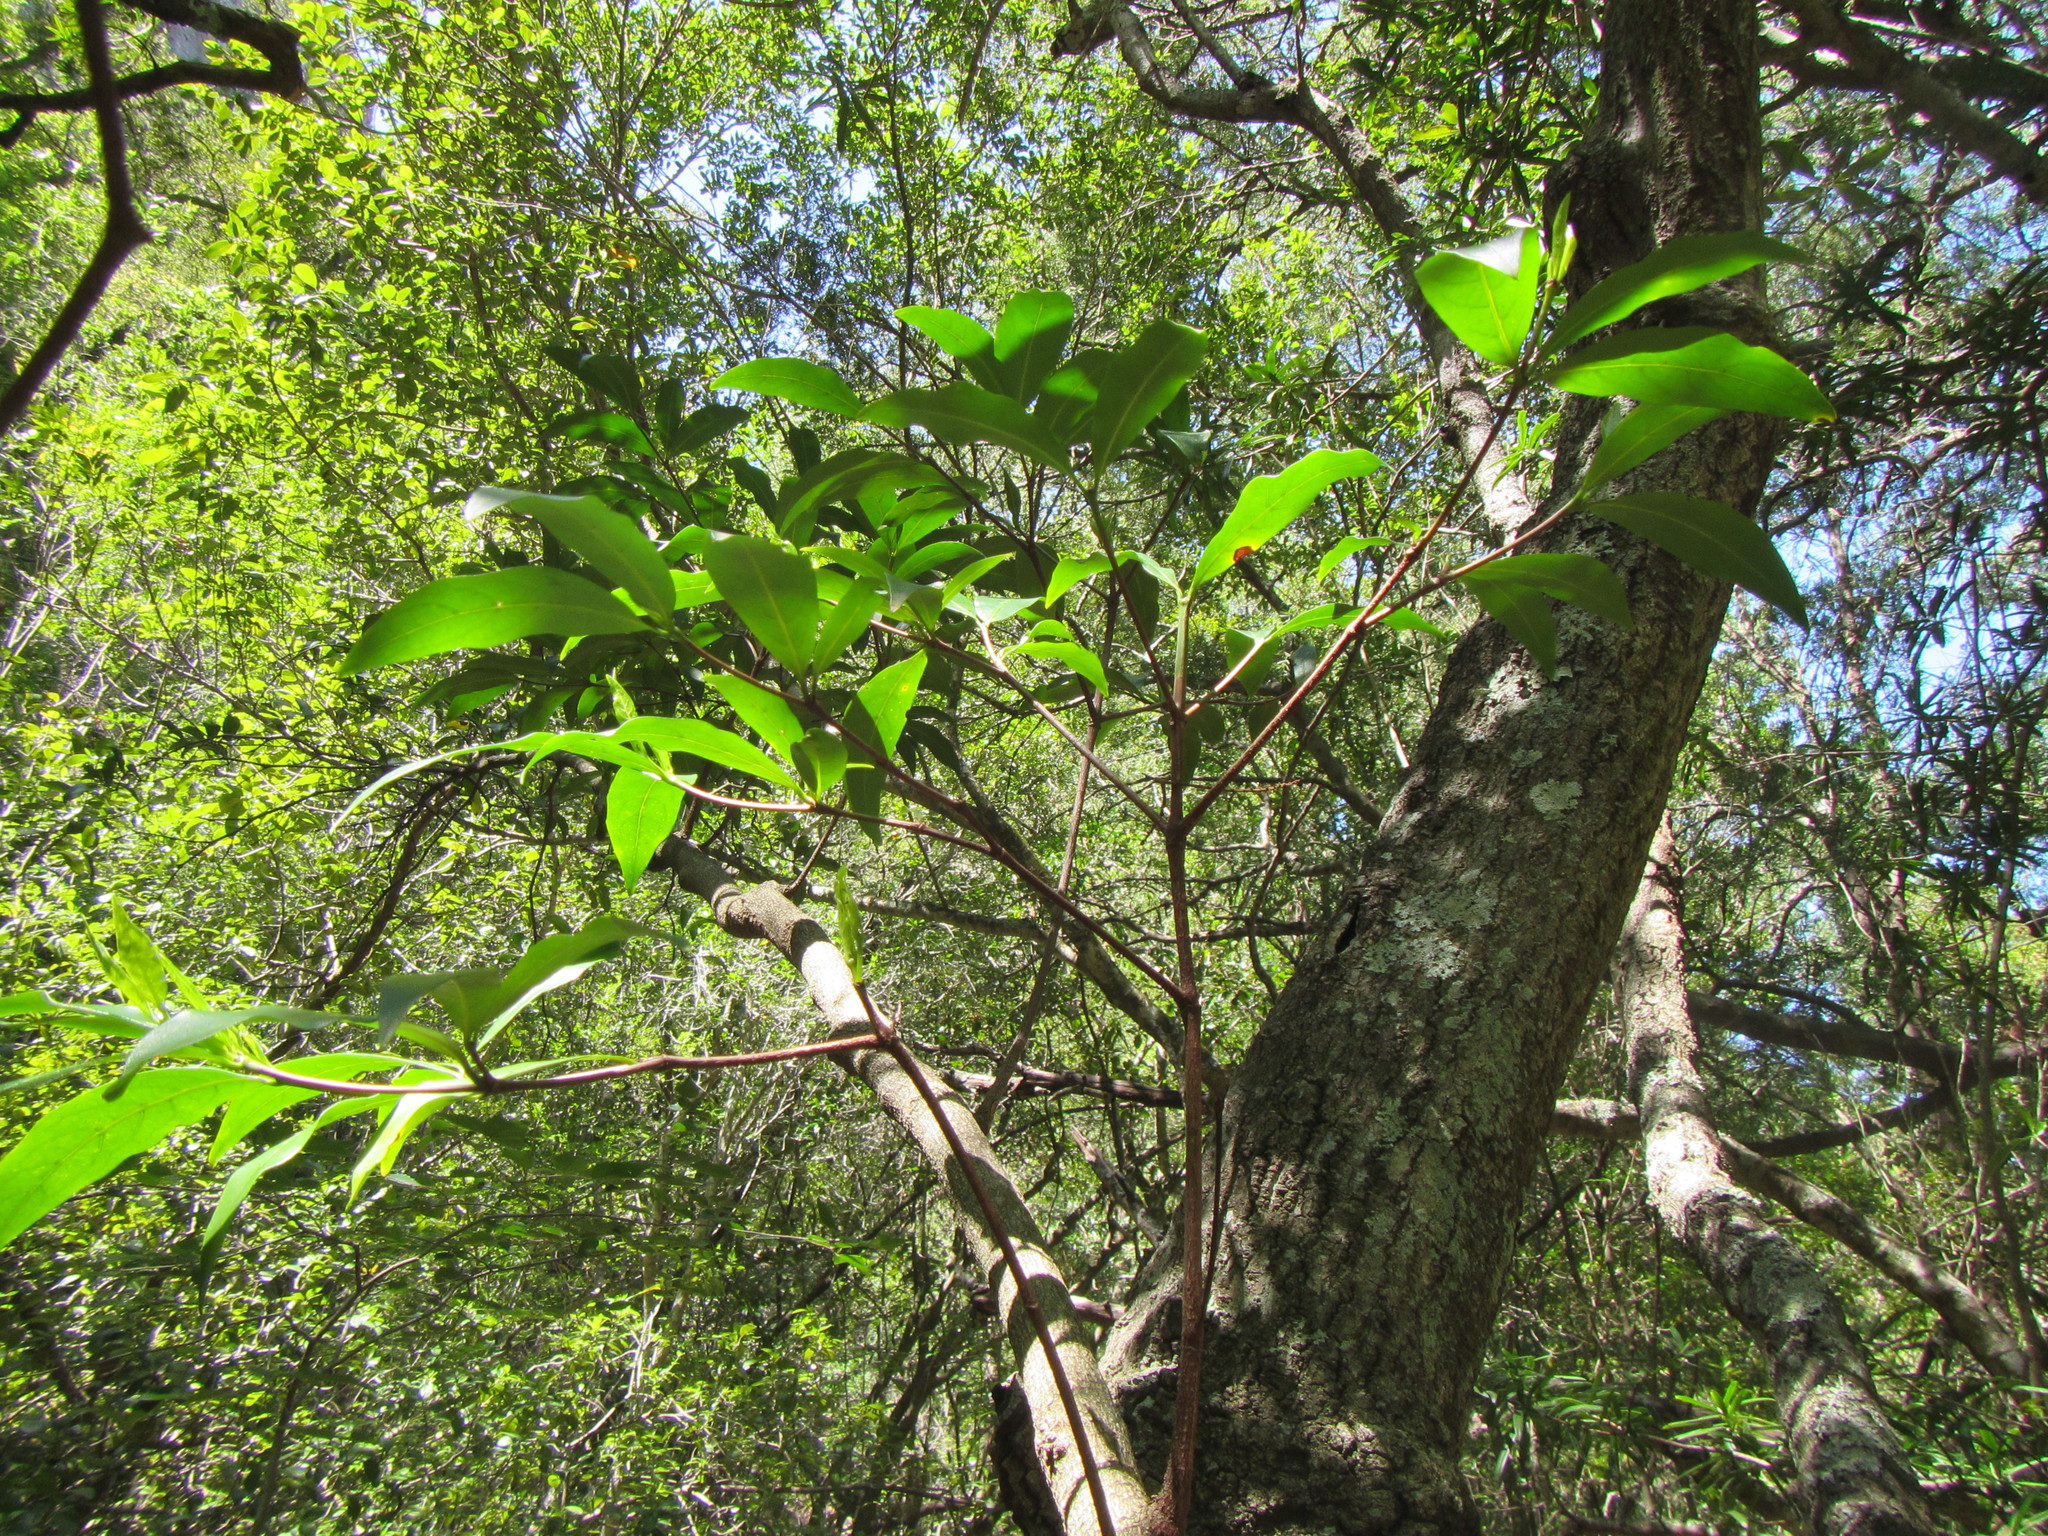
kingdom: Plantae
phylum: Tracheophyta
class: Magnoliopsida
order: Gentianales
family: Rubiaceae
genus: Rothmannia
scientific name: Rothmannia capensis
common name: Cape gardenia
